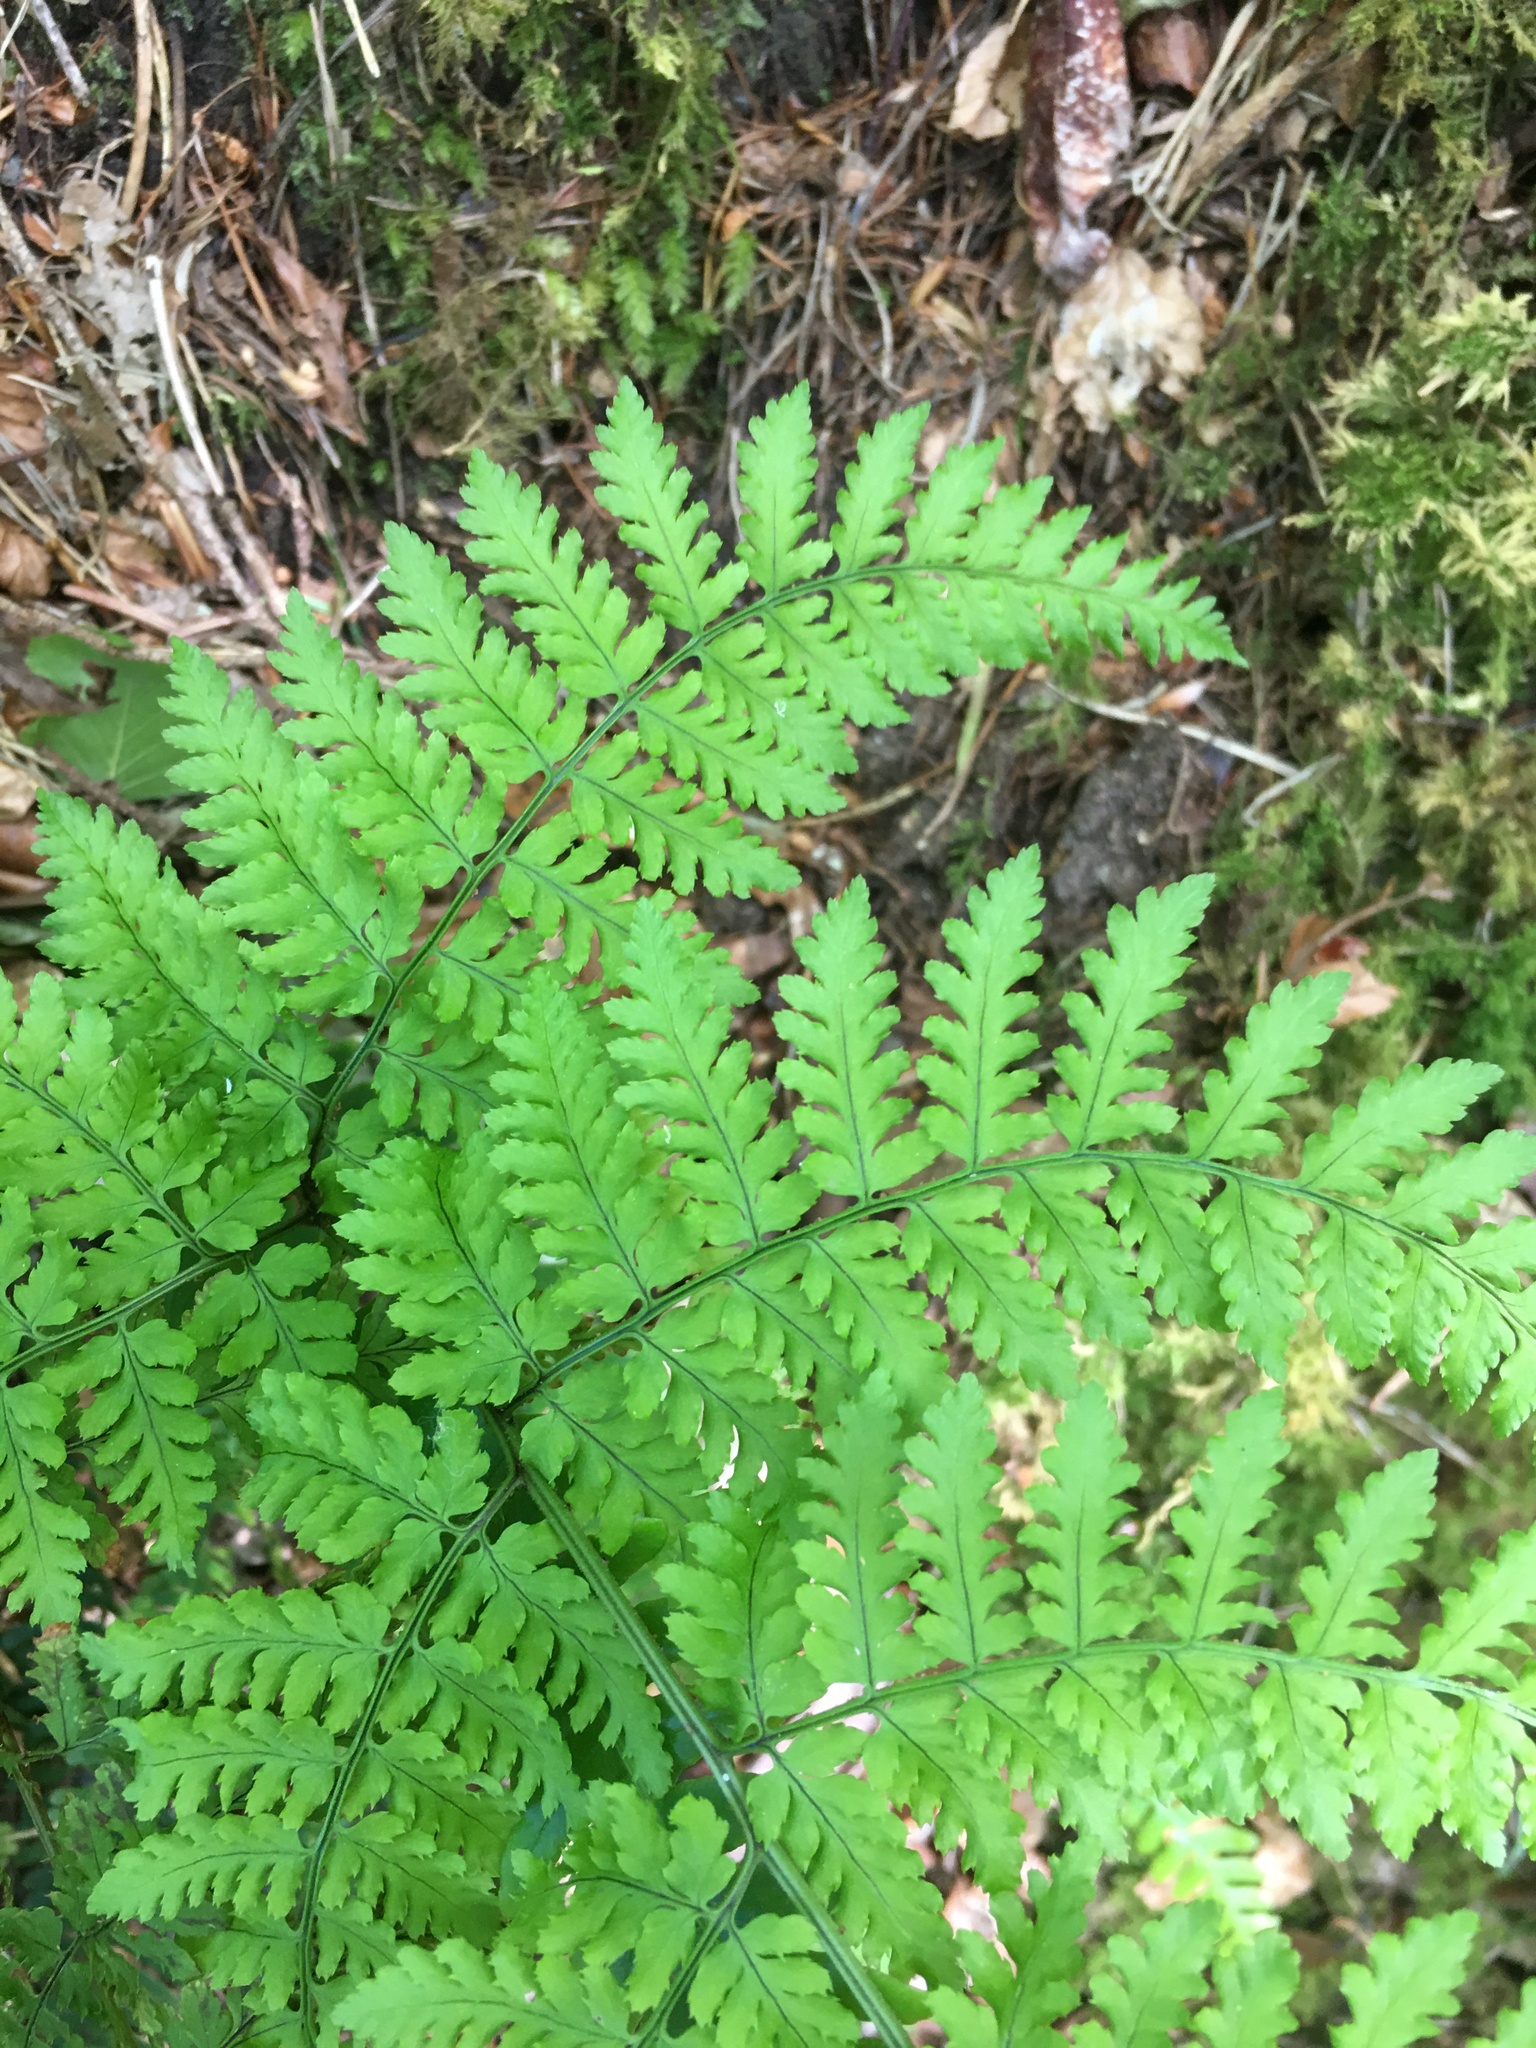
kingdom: Plantae
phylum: Tracheophyta
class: Polypodiopsida
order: Polypodiales
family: Dryopteridaceae
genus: Dryopteris
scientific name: Dryopteris aemula
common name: Hay-scented buckler-fern
